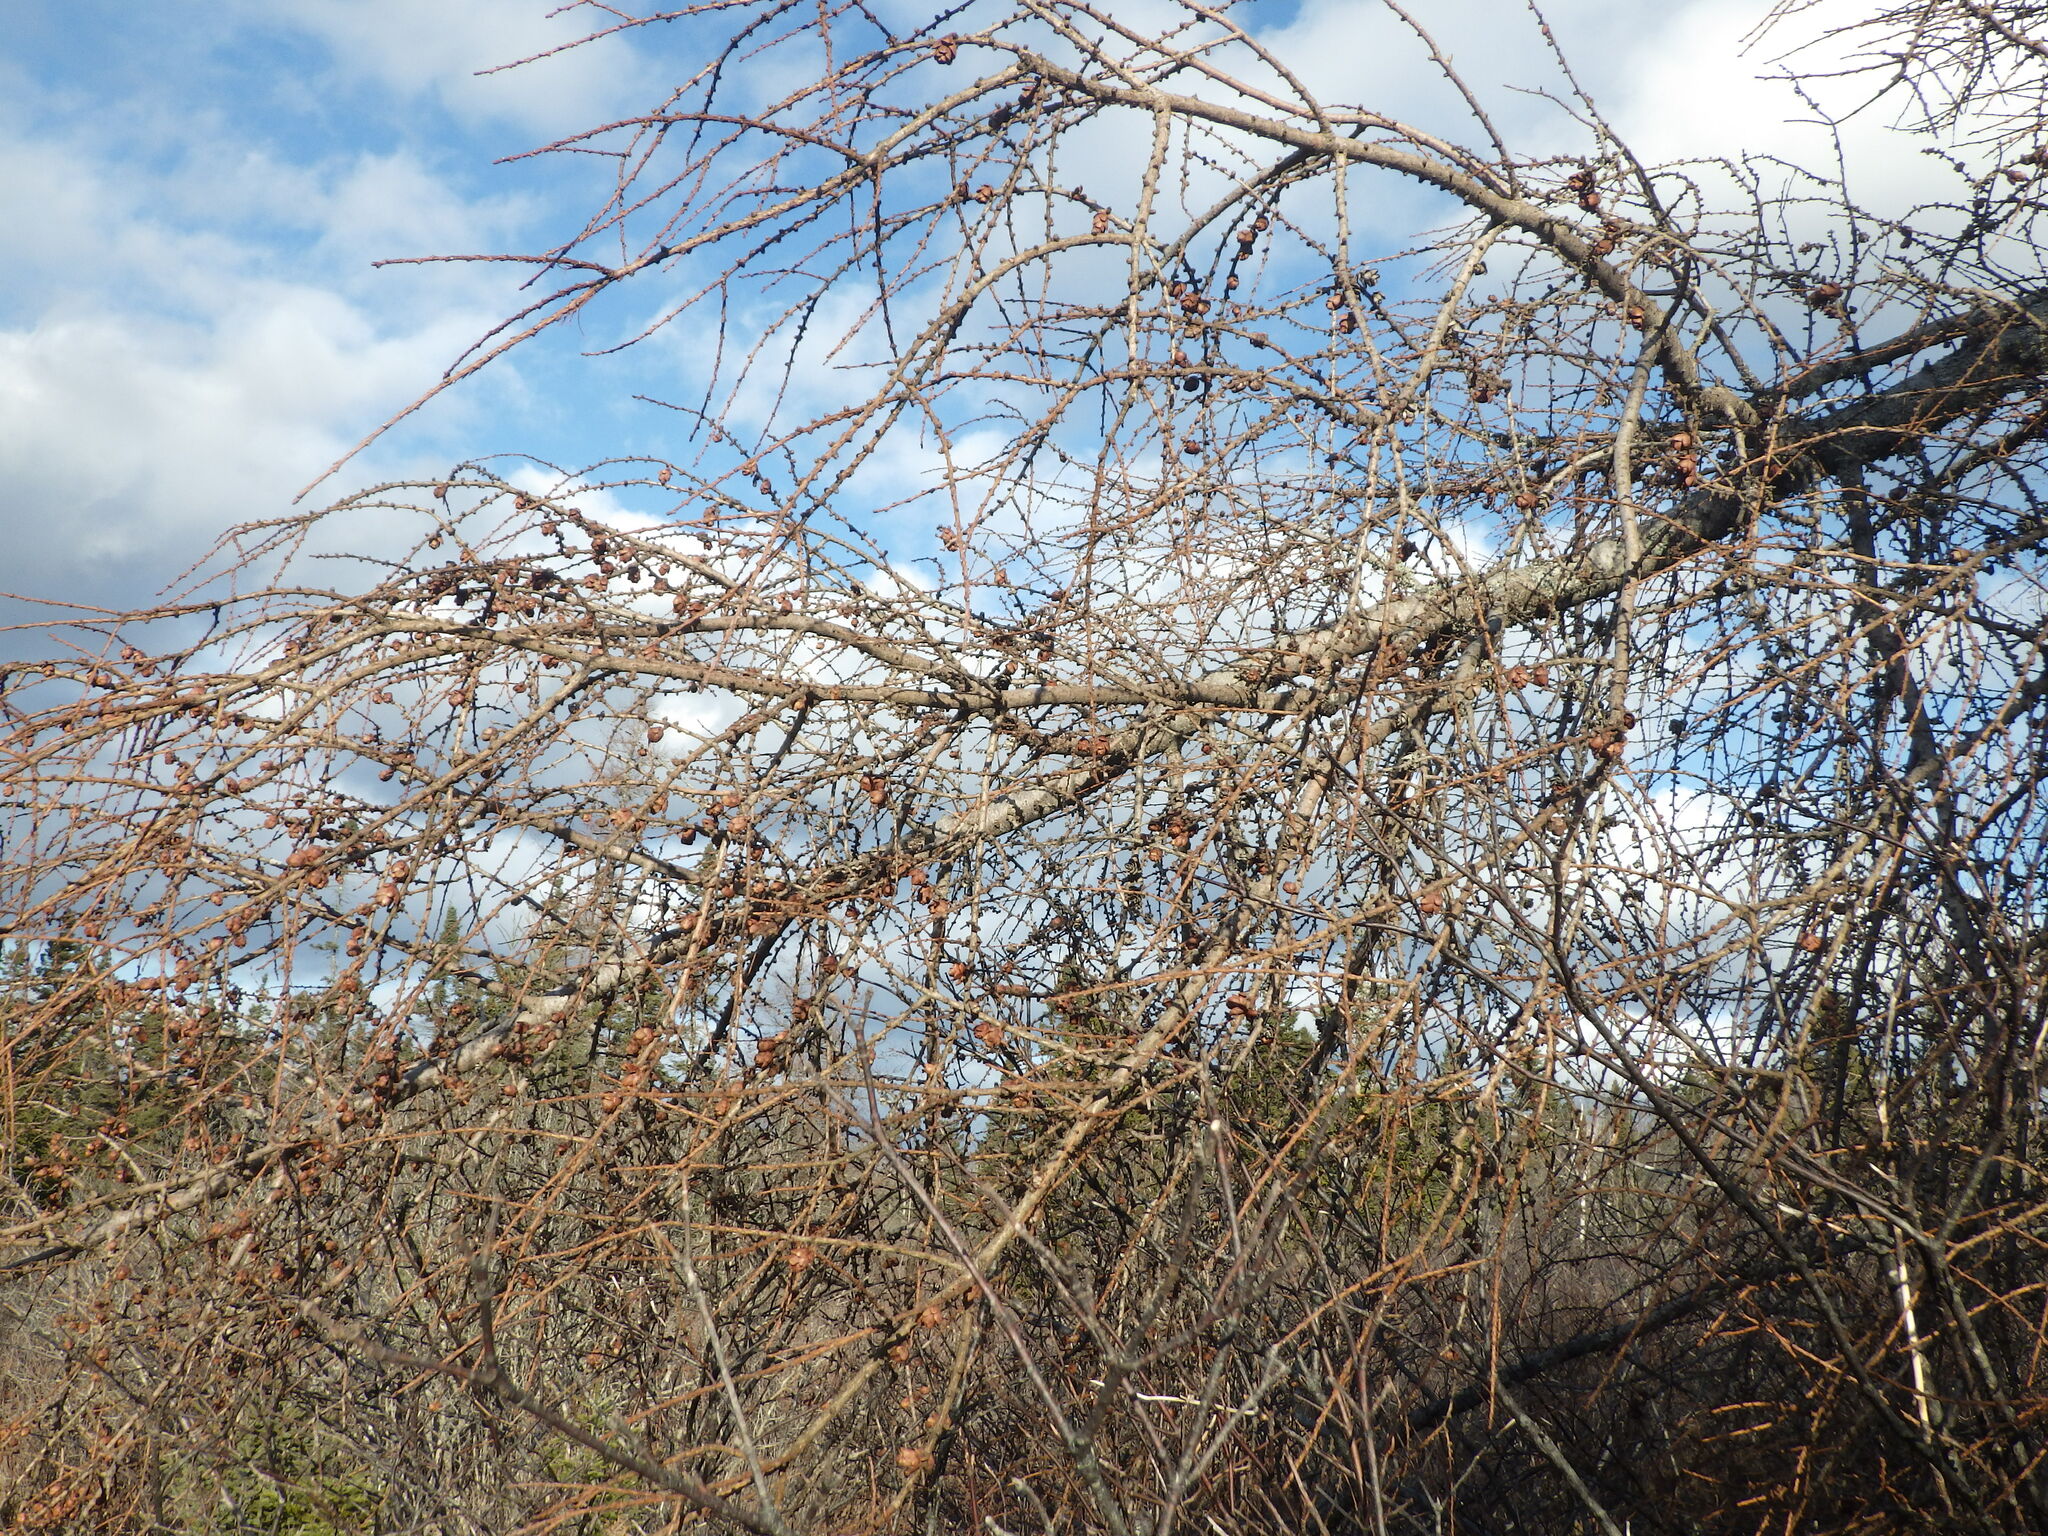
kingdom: Plantae
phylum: Tracheophyta
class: Pinopsida
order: Pinales
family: Pinaceae
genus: Larix
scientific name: Larix laricina
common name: American larch
